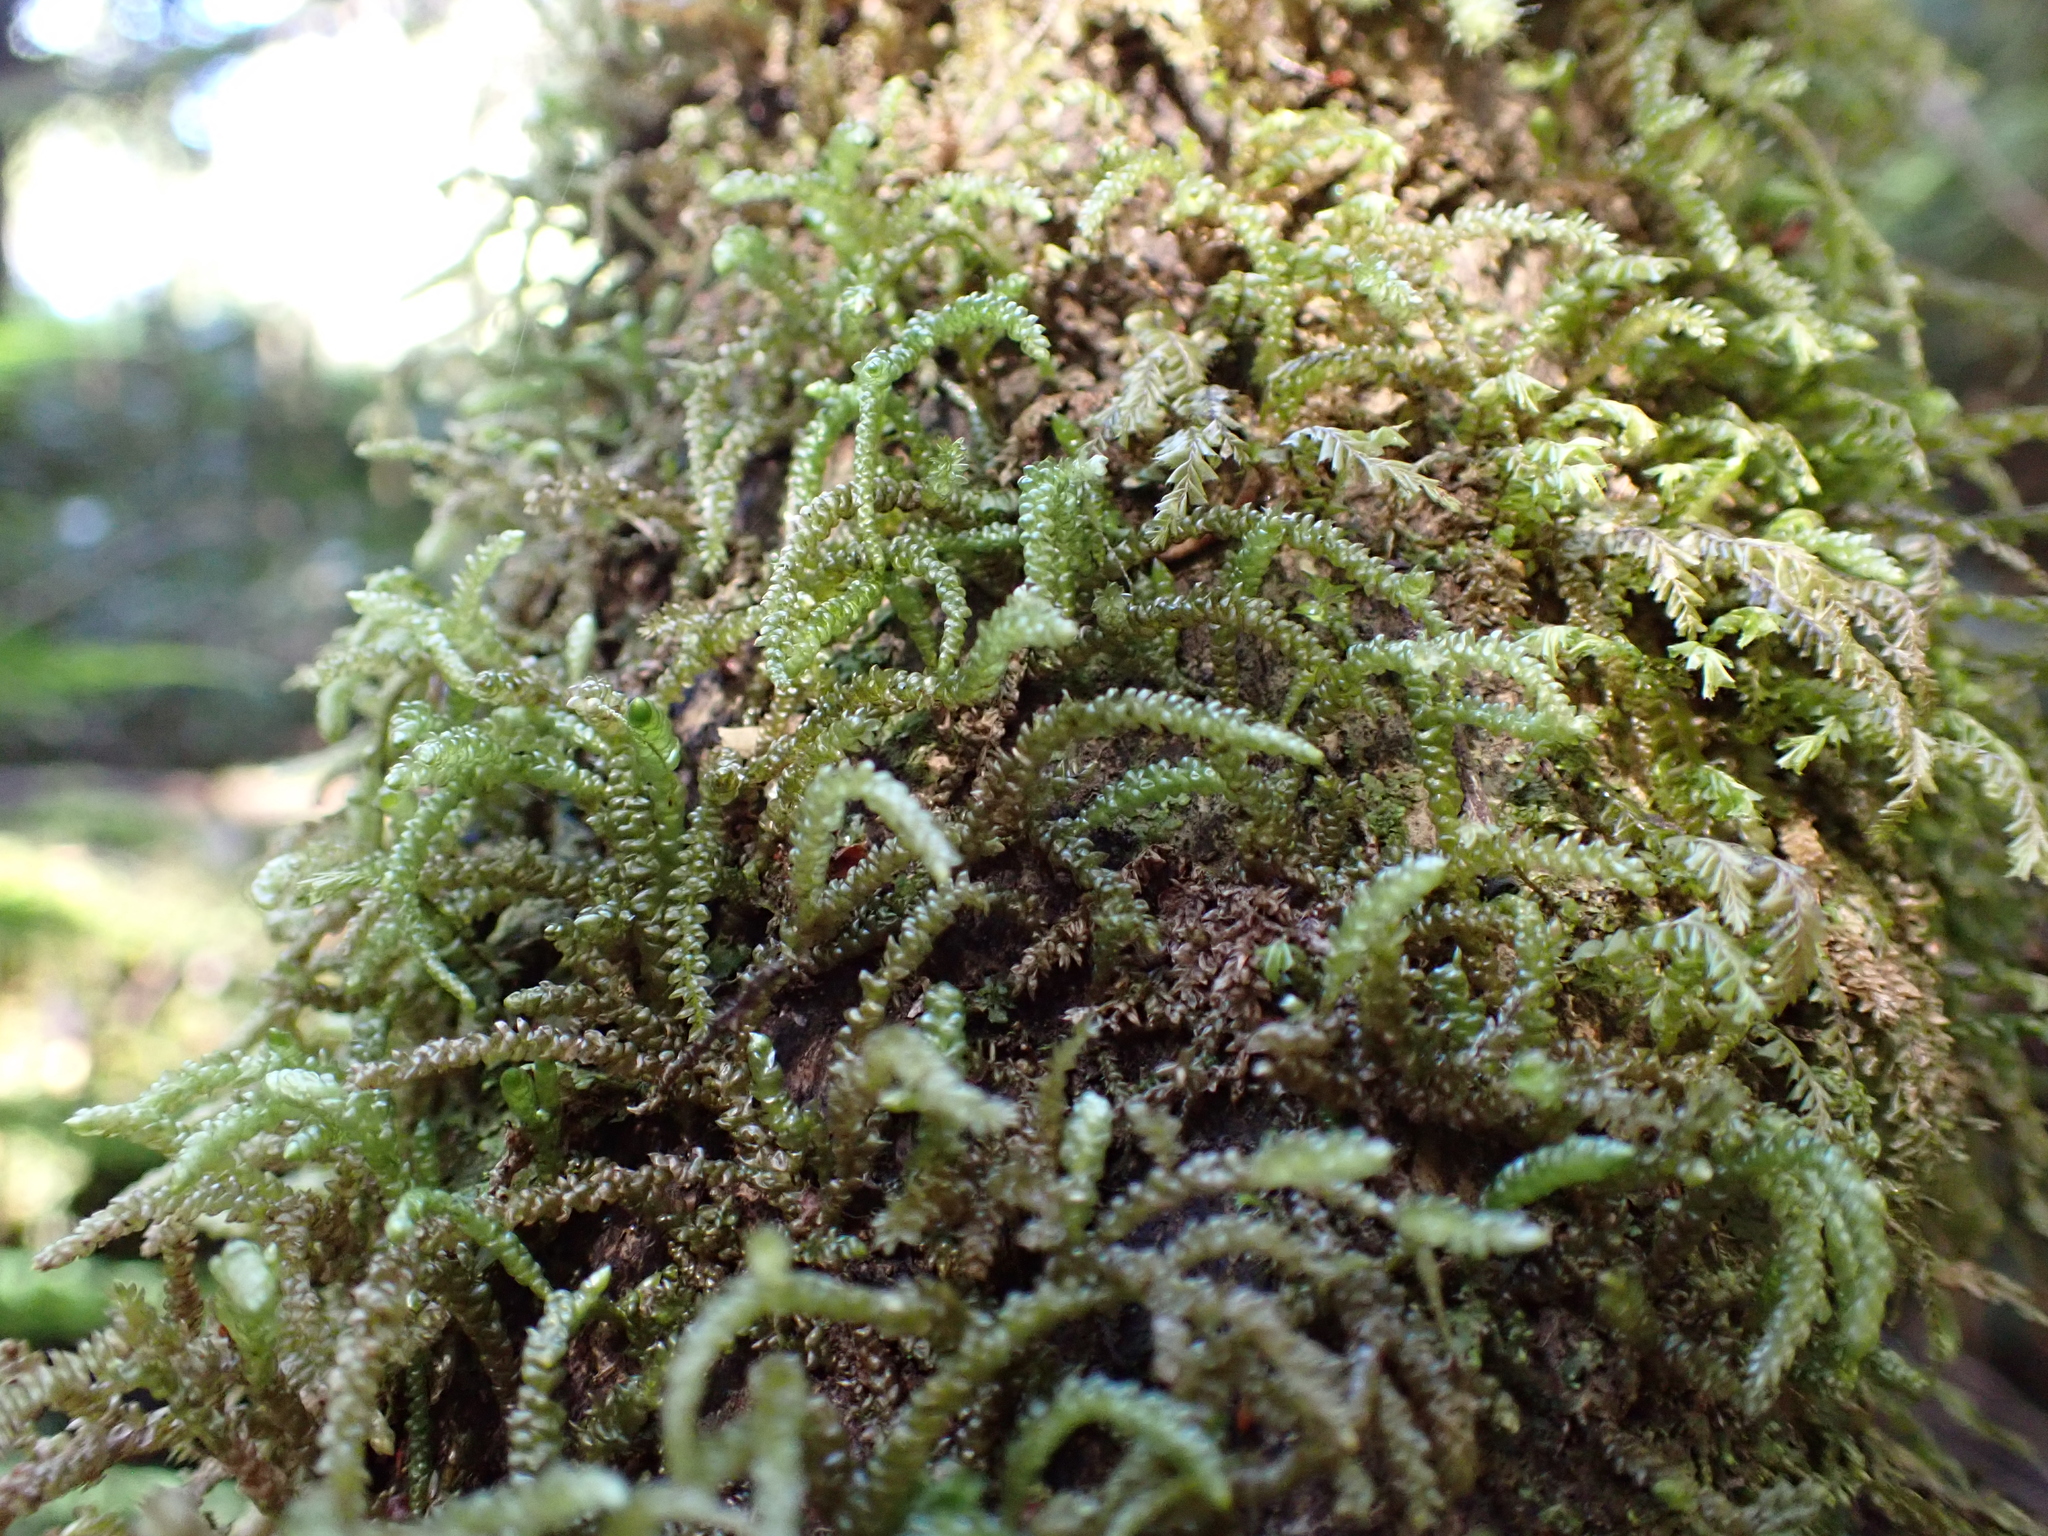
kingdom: Plantae
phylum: Bryophyta
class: Bryopsida
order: Hypnales
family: Lembophyllaceae
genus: Lembophyllum
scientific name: Lembophyllum clandestinum
